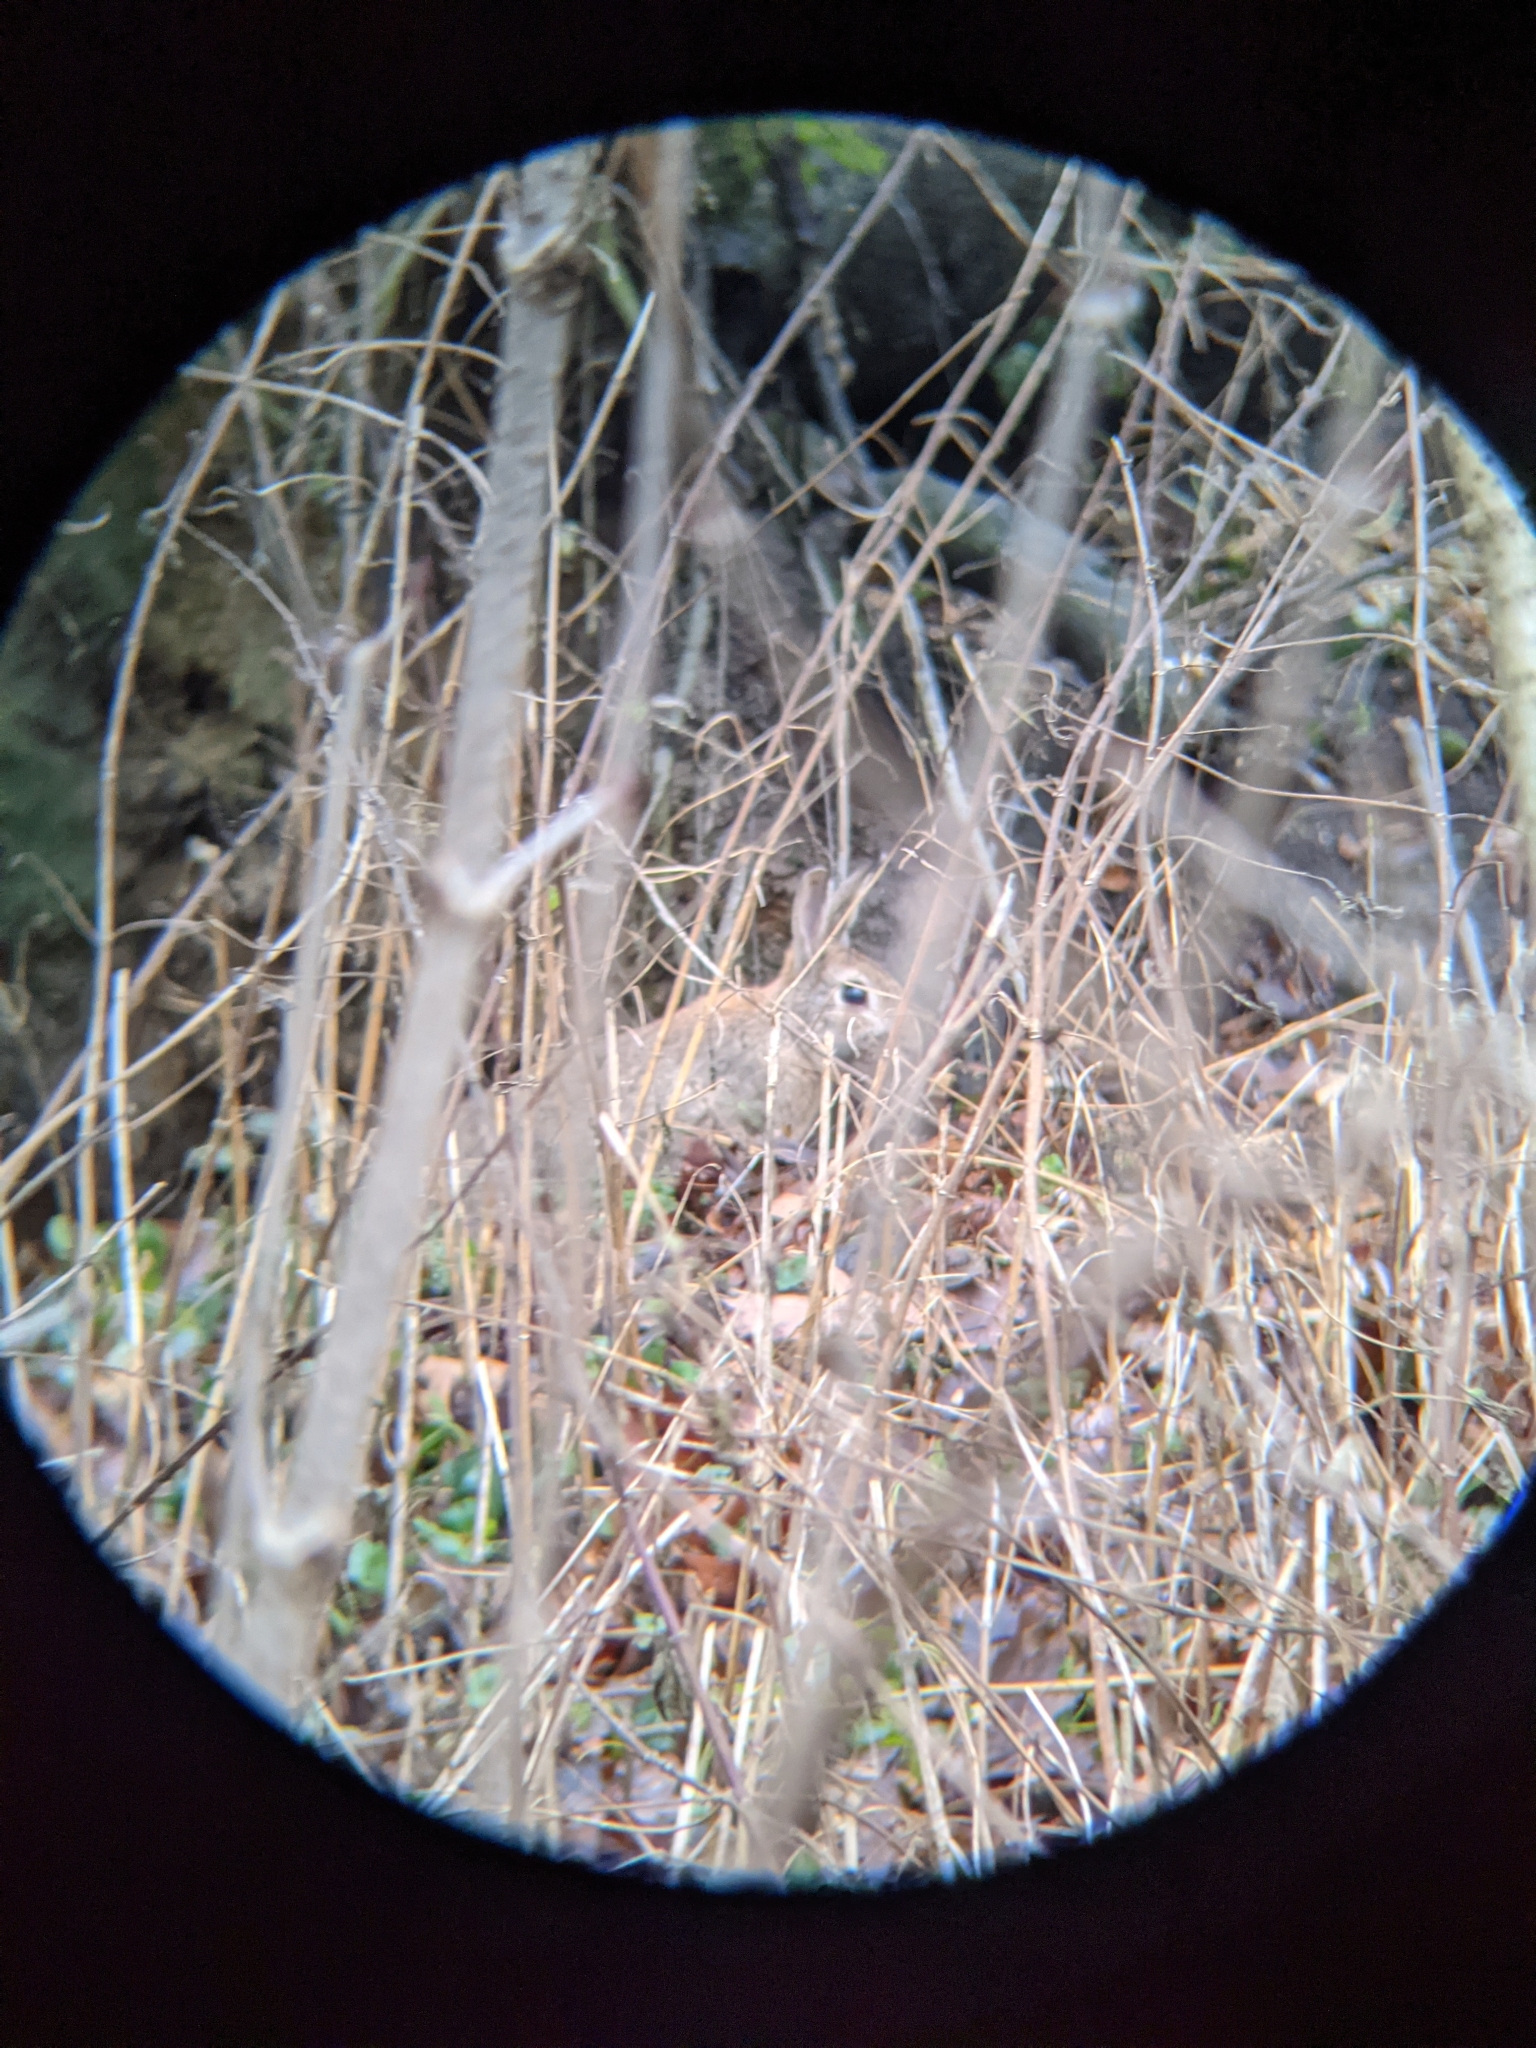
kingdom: Animalia
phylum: Chordata
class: Mammalia
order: Lagomorpha
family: Leporidae
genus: Oryctolagus
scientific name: Oryctolagus cuniculus
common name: European rabbit
